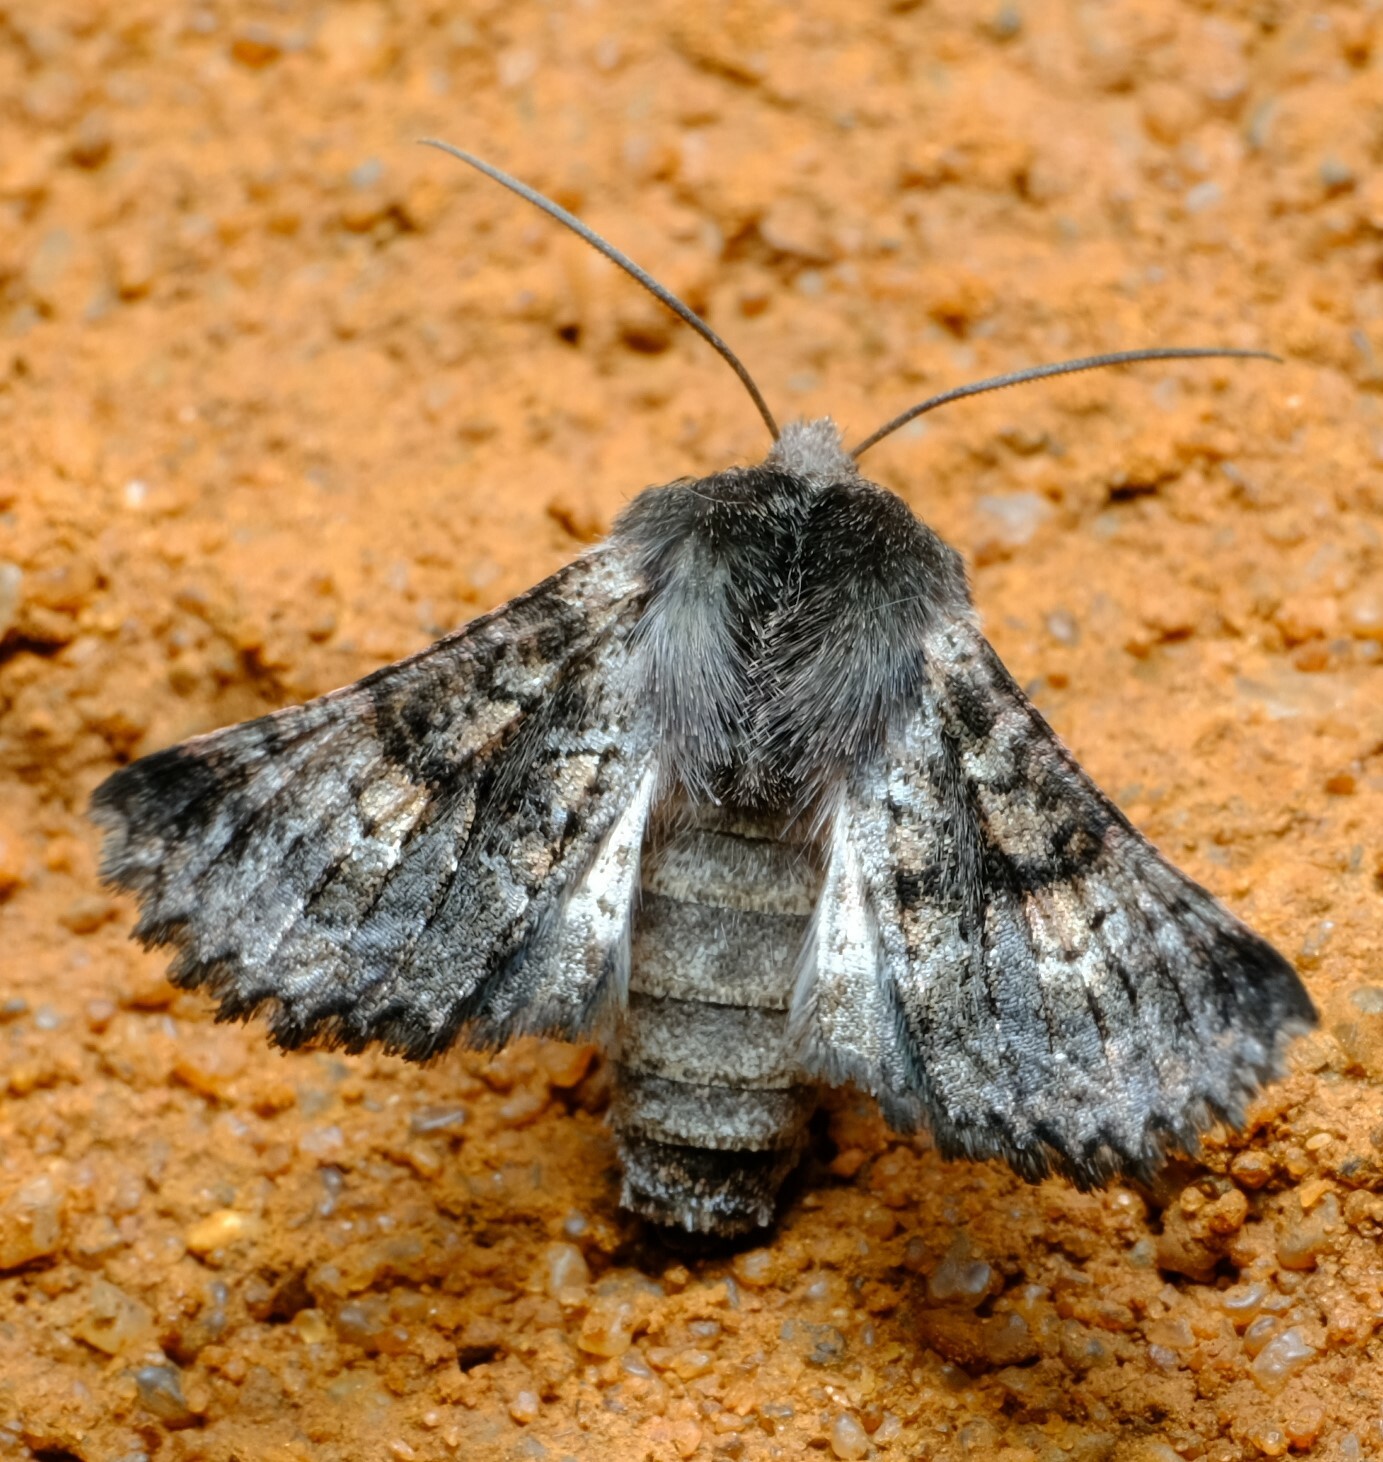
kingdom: Animalia
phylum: Arthropoda
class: Insecta
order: Lepidoptera
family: Geometridae
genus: Dinophalus
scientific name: Dinophalus ampycteria
